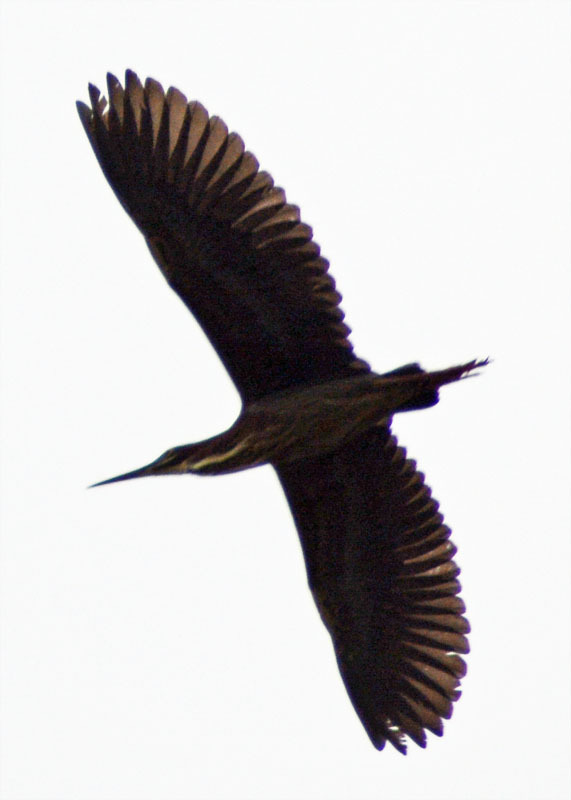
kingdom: Animalia
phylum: Chordata
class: Aves
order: Pelecaniformes
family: Ardeidae
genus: Butorides
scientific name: Butorides virescens
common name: Green heron
